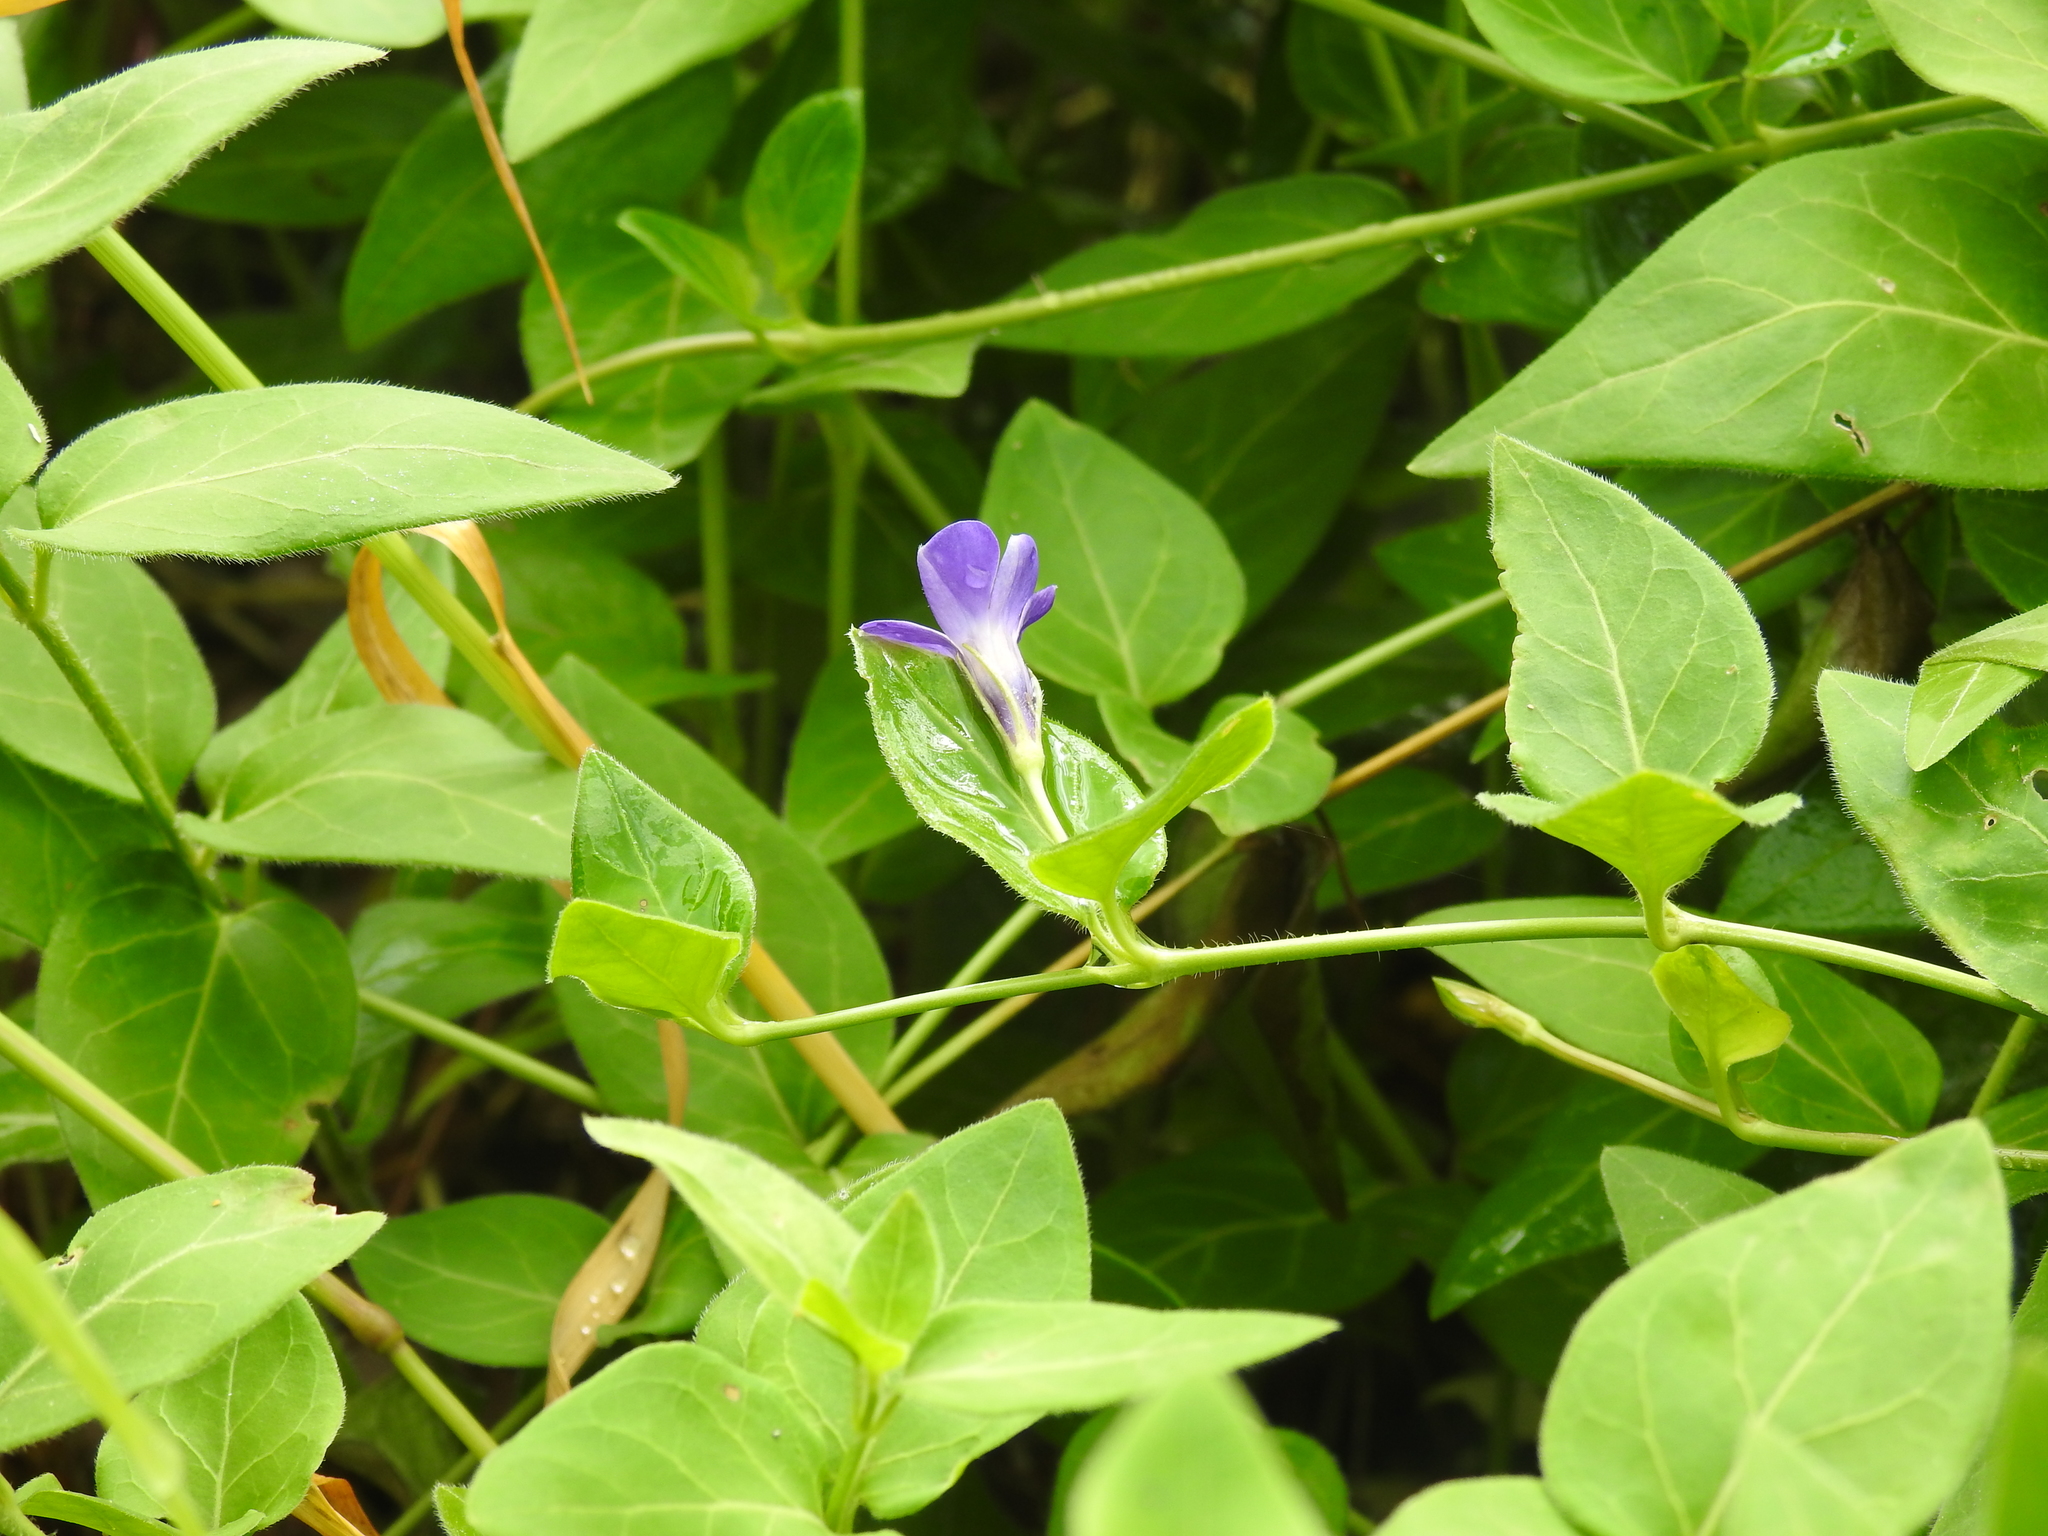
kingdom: Plantae
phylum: Tracheophyta
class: Magnoliopsida
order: Gentianales
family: Apocynaceae
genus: Vinca
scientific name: Vinca major
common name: Greater periwinkle
